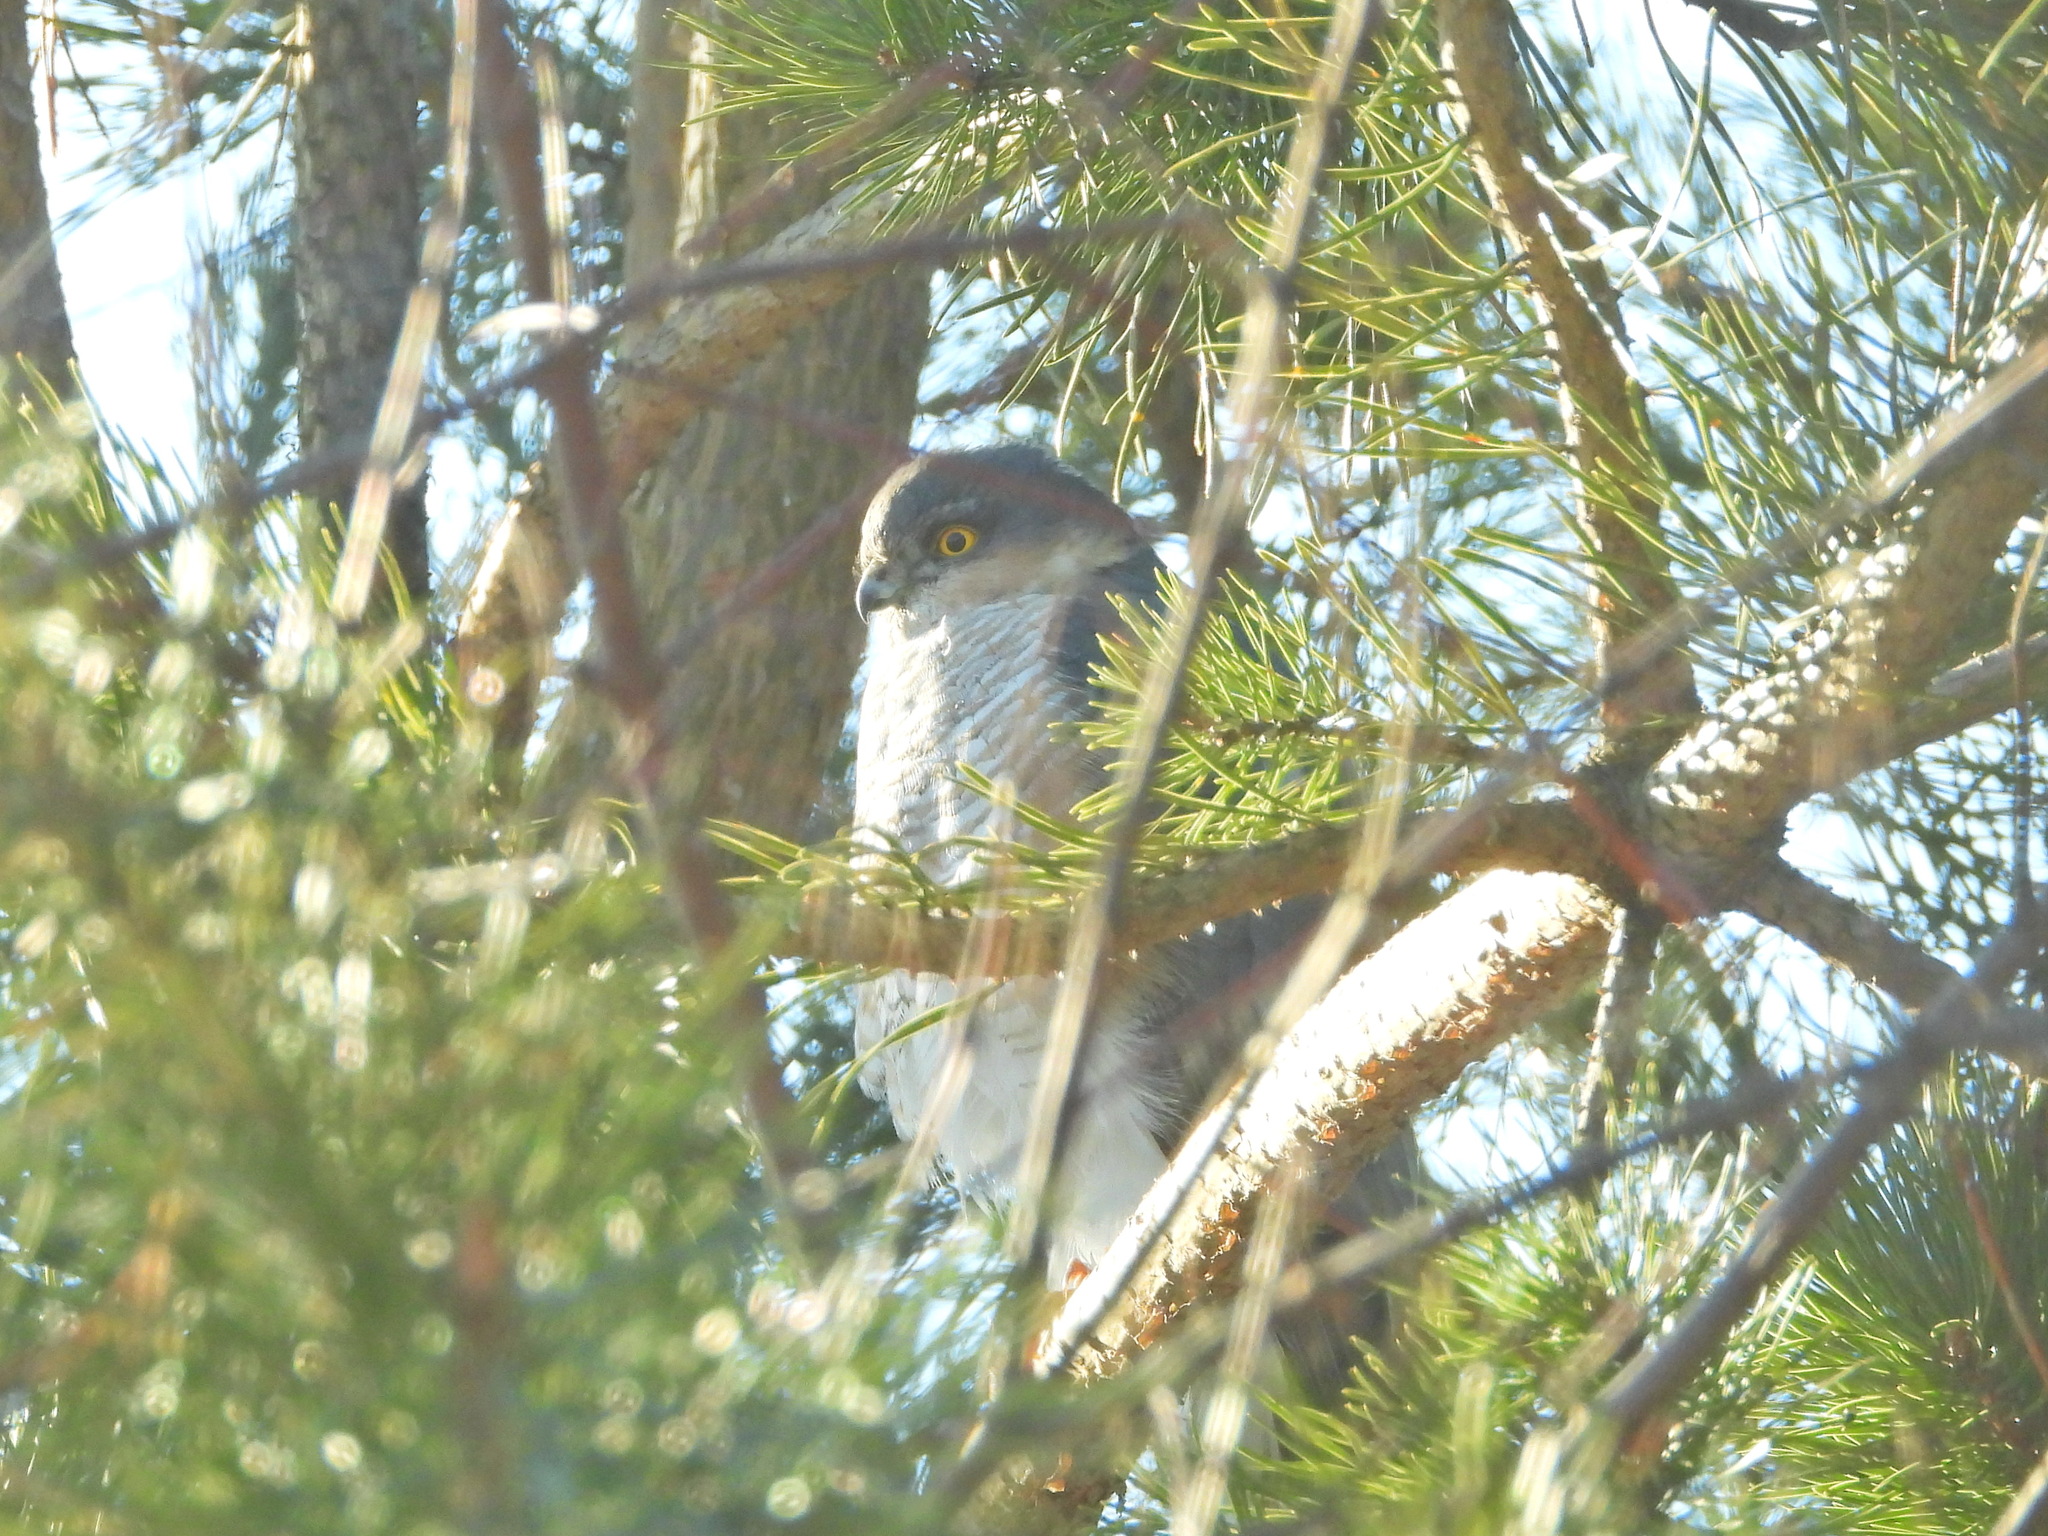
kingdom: Animalia
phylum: Chordata
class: Aves
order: Accipitriformes
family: Accipitridae
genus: Accipiter
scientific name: Accipiter nisus
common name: Eurasian sparrowhawk
